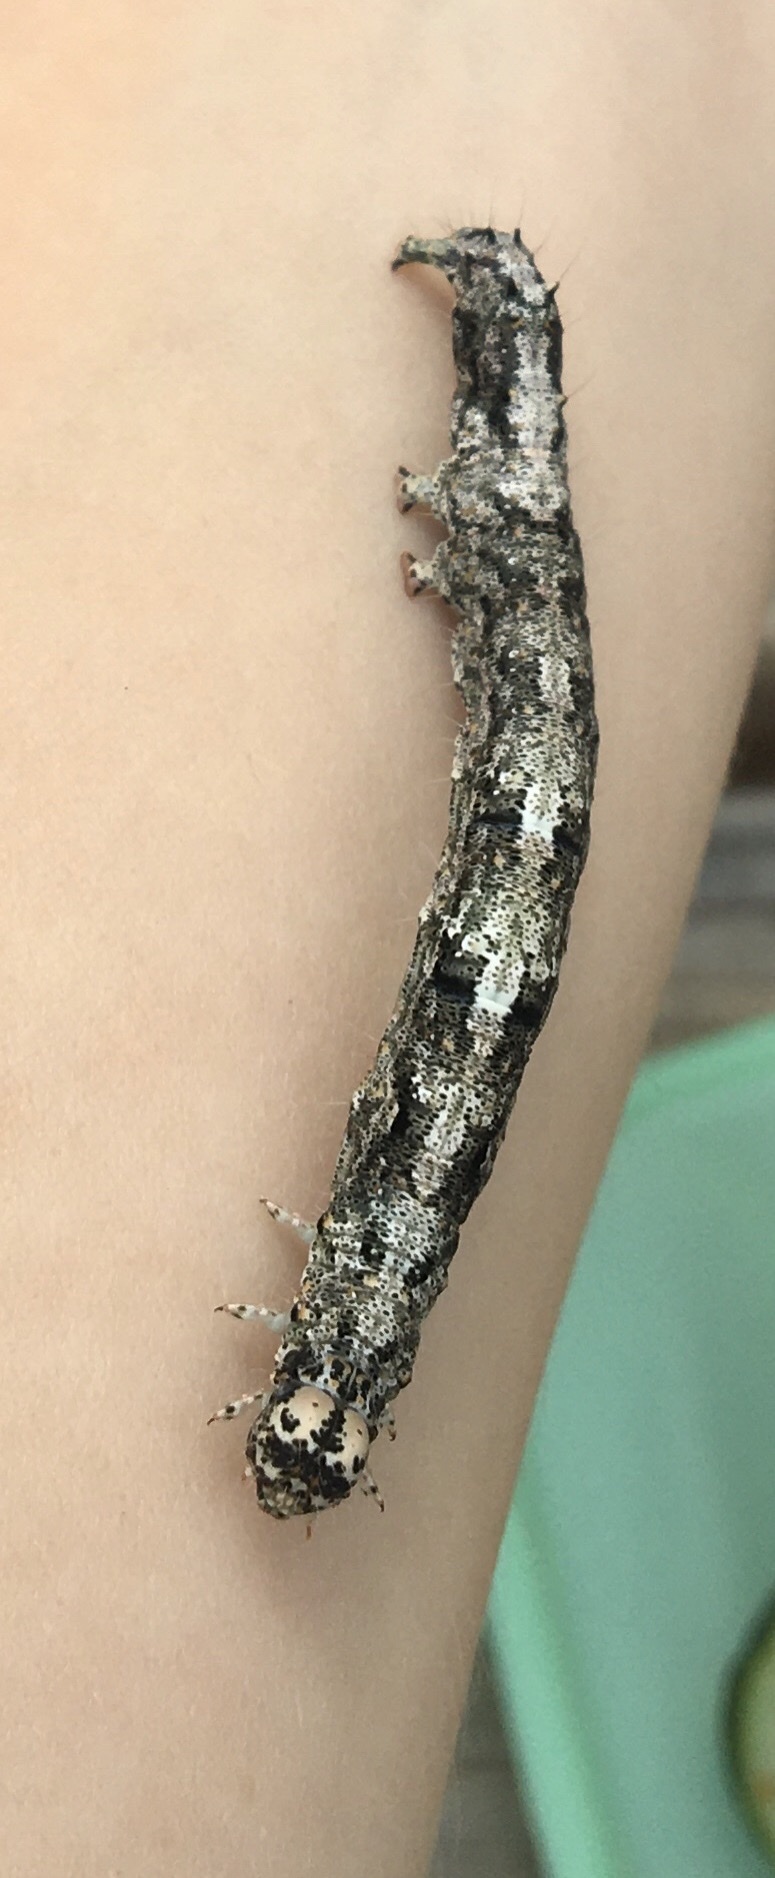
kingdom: Animalia
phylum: Arthropoda
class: Insecta
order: Lepidoptera
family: Erebidae
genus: Metria
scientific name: Metria amella
